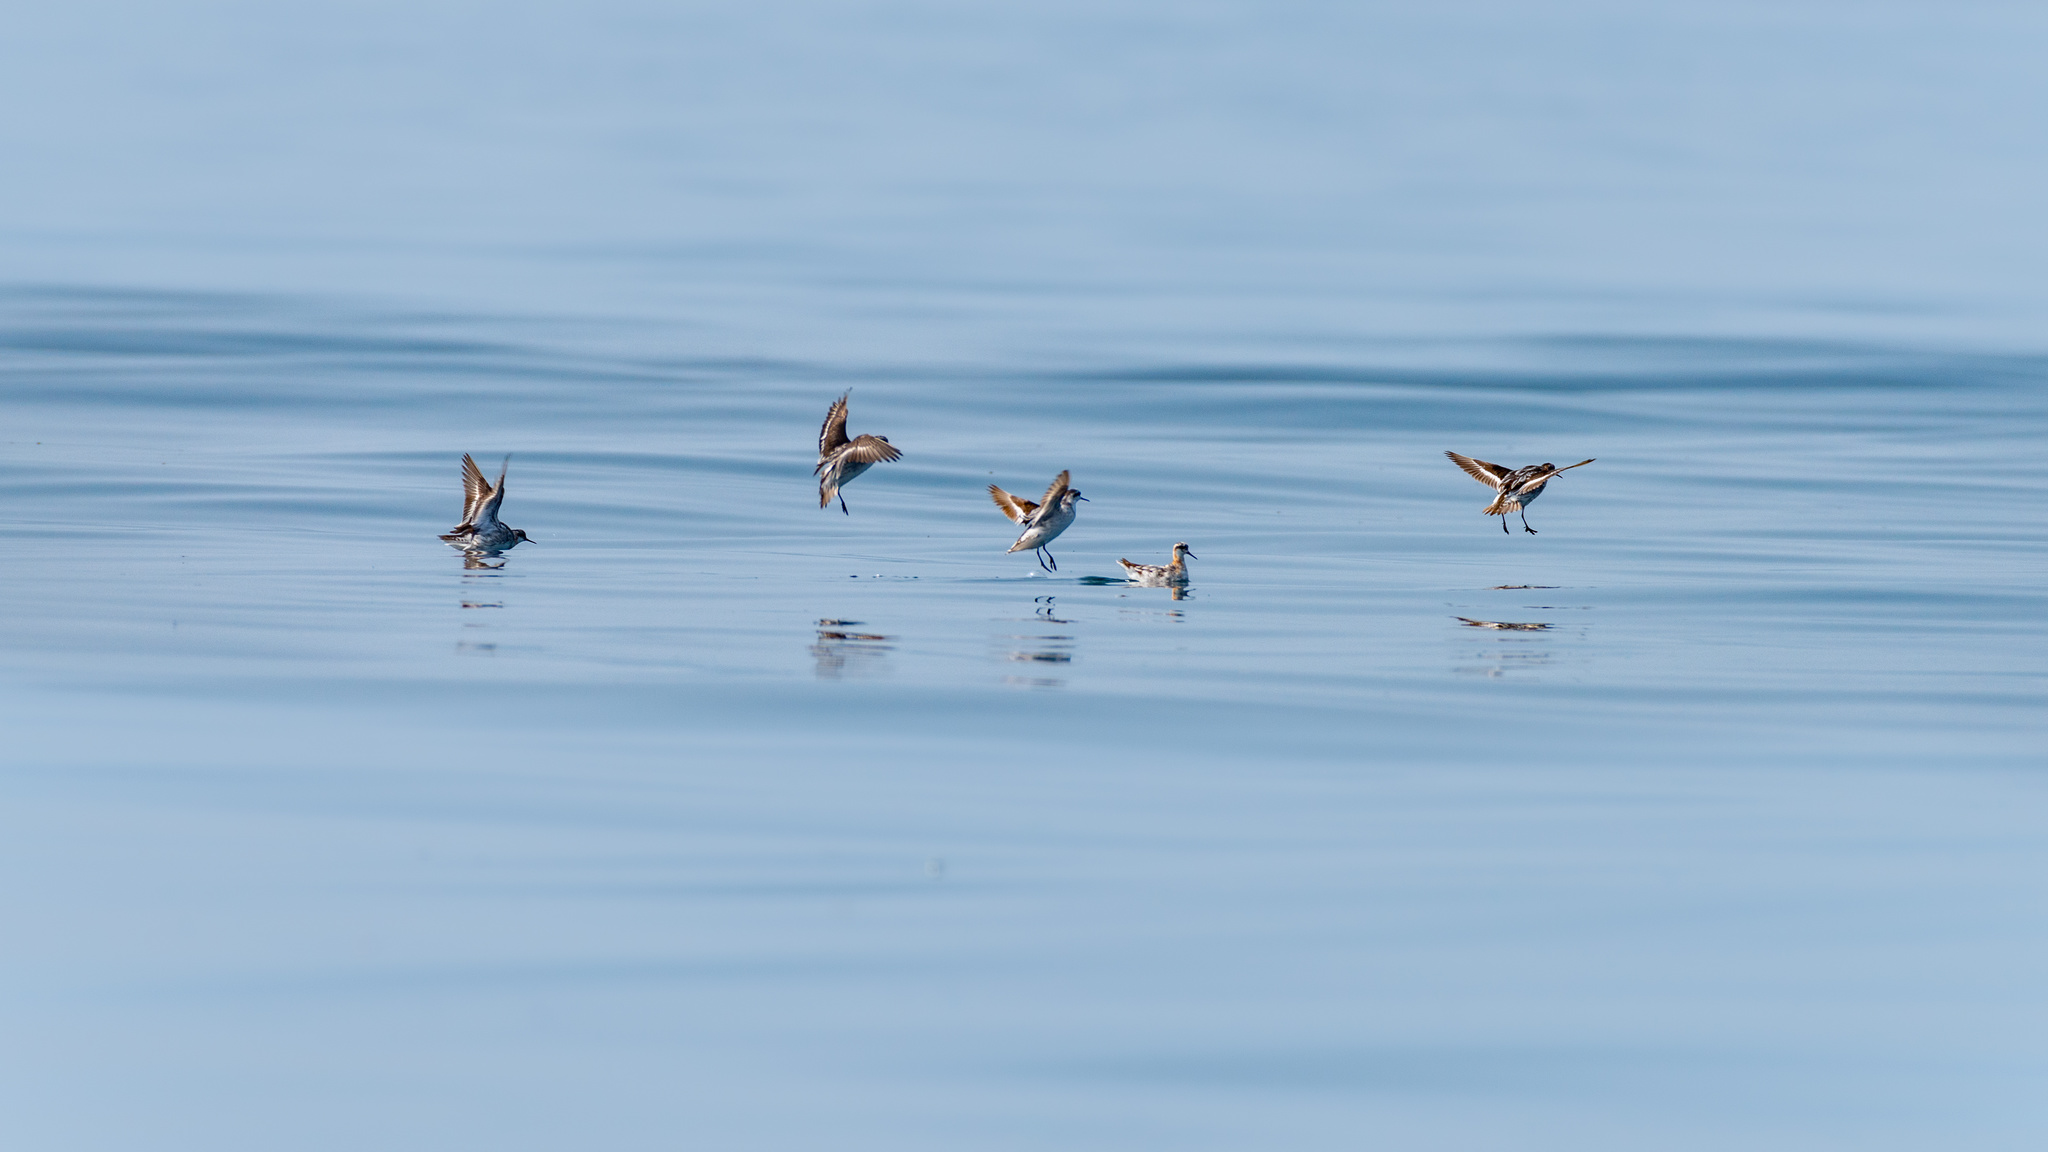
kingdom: Animalia
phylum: Chordata
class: Aves
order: Charadriiformes
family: Scolopacidae
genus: Phalaropus
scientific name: Phalaropus lobatus
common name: Red-necked phalarope
